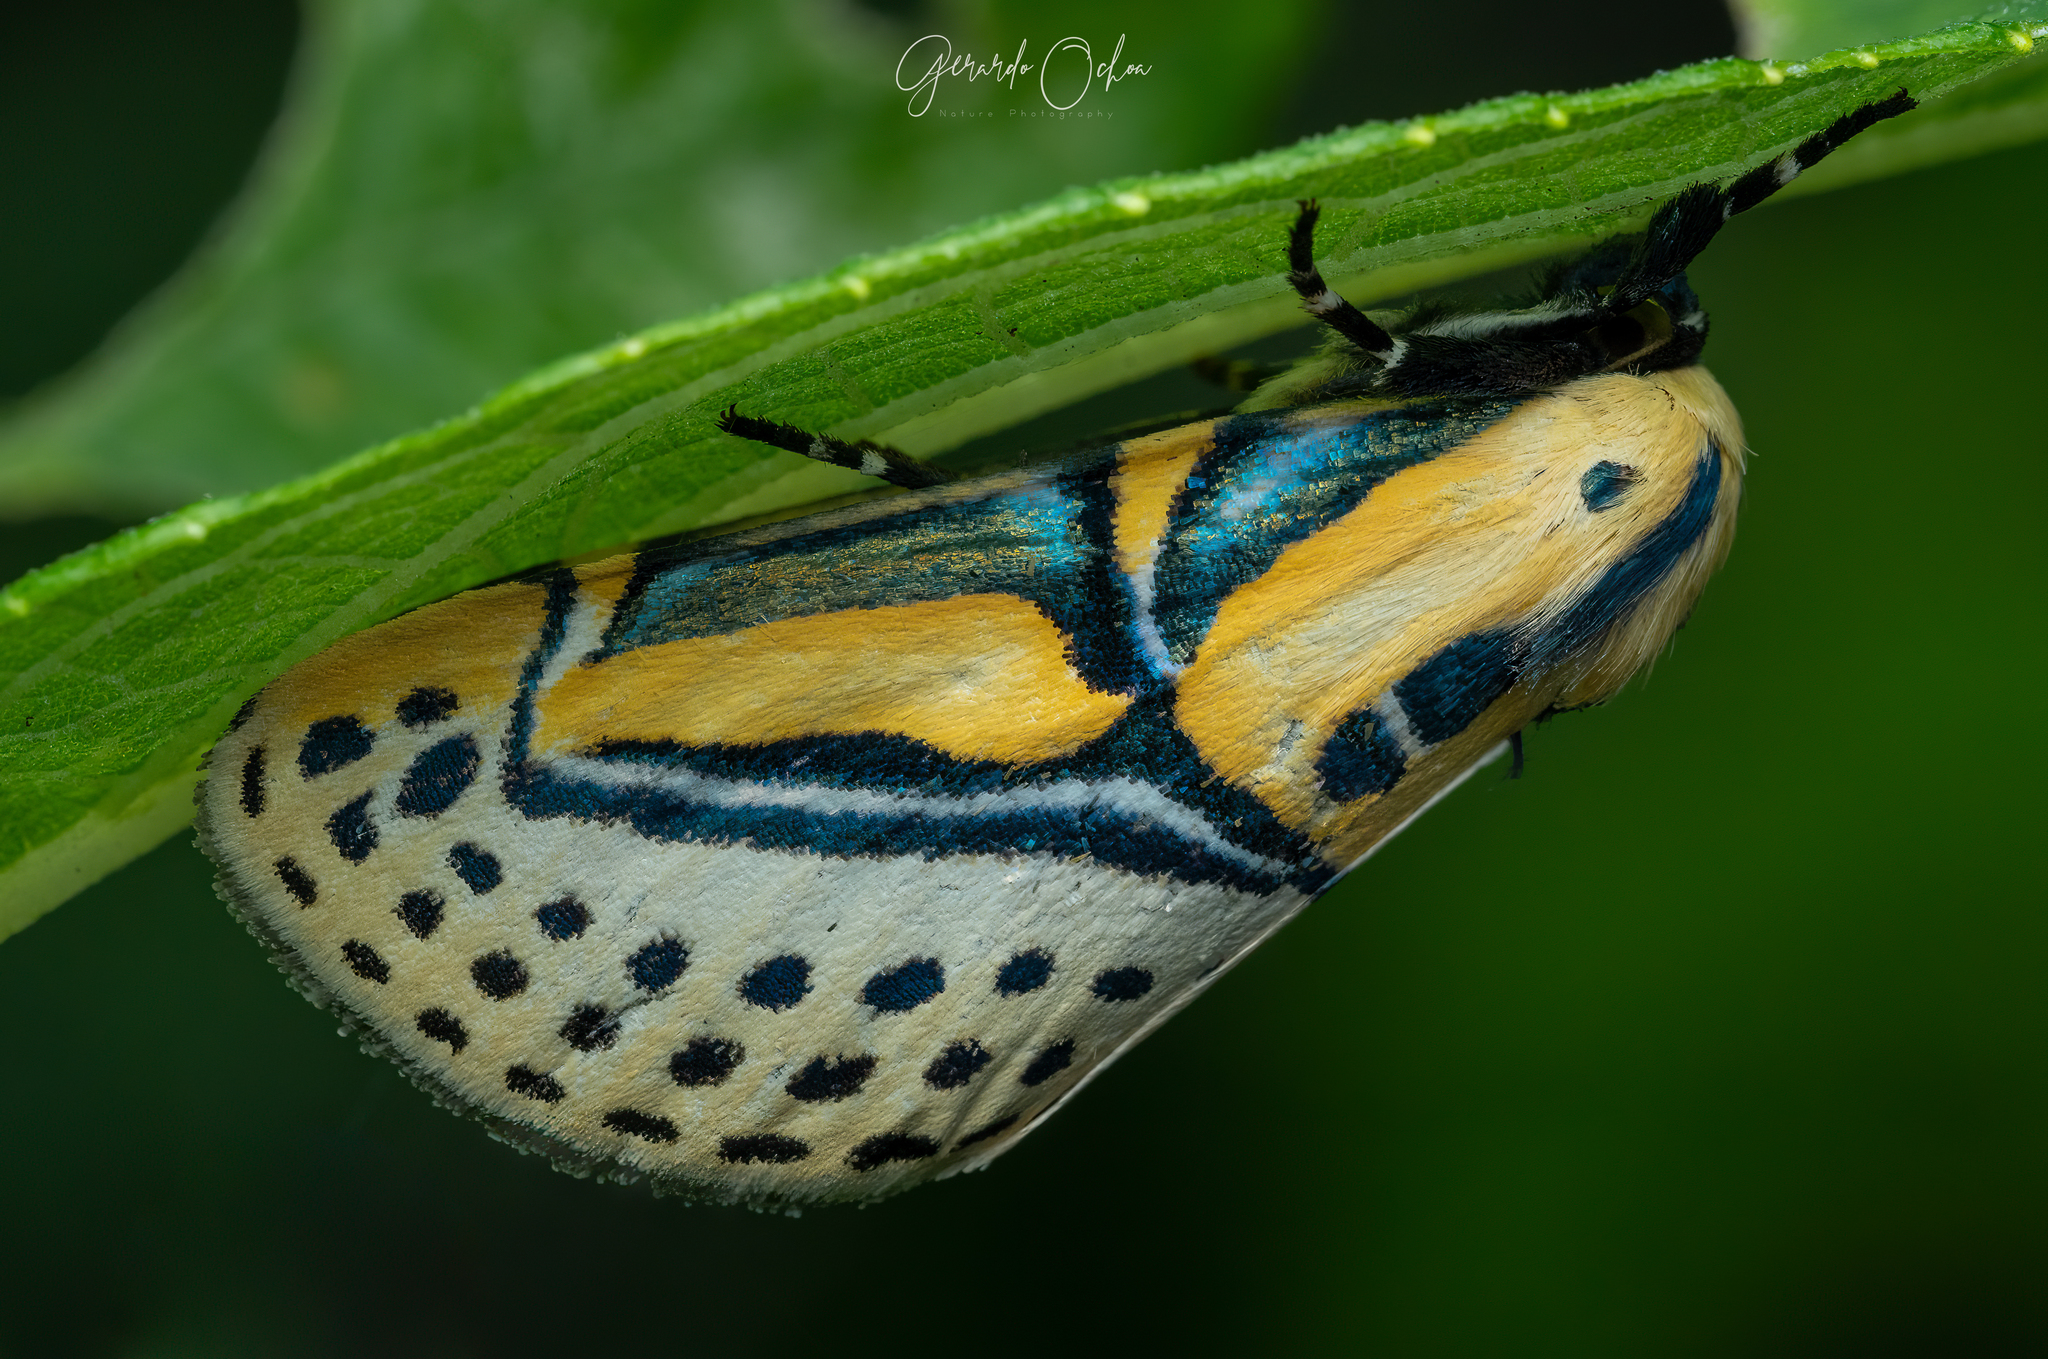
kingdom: Animalia
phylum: Arthropoda
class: Insecta
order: Lepidoptera
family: Erebidae
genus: Diphthera
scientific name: Diphthera festiva
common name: Hieroglyphic moth
